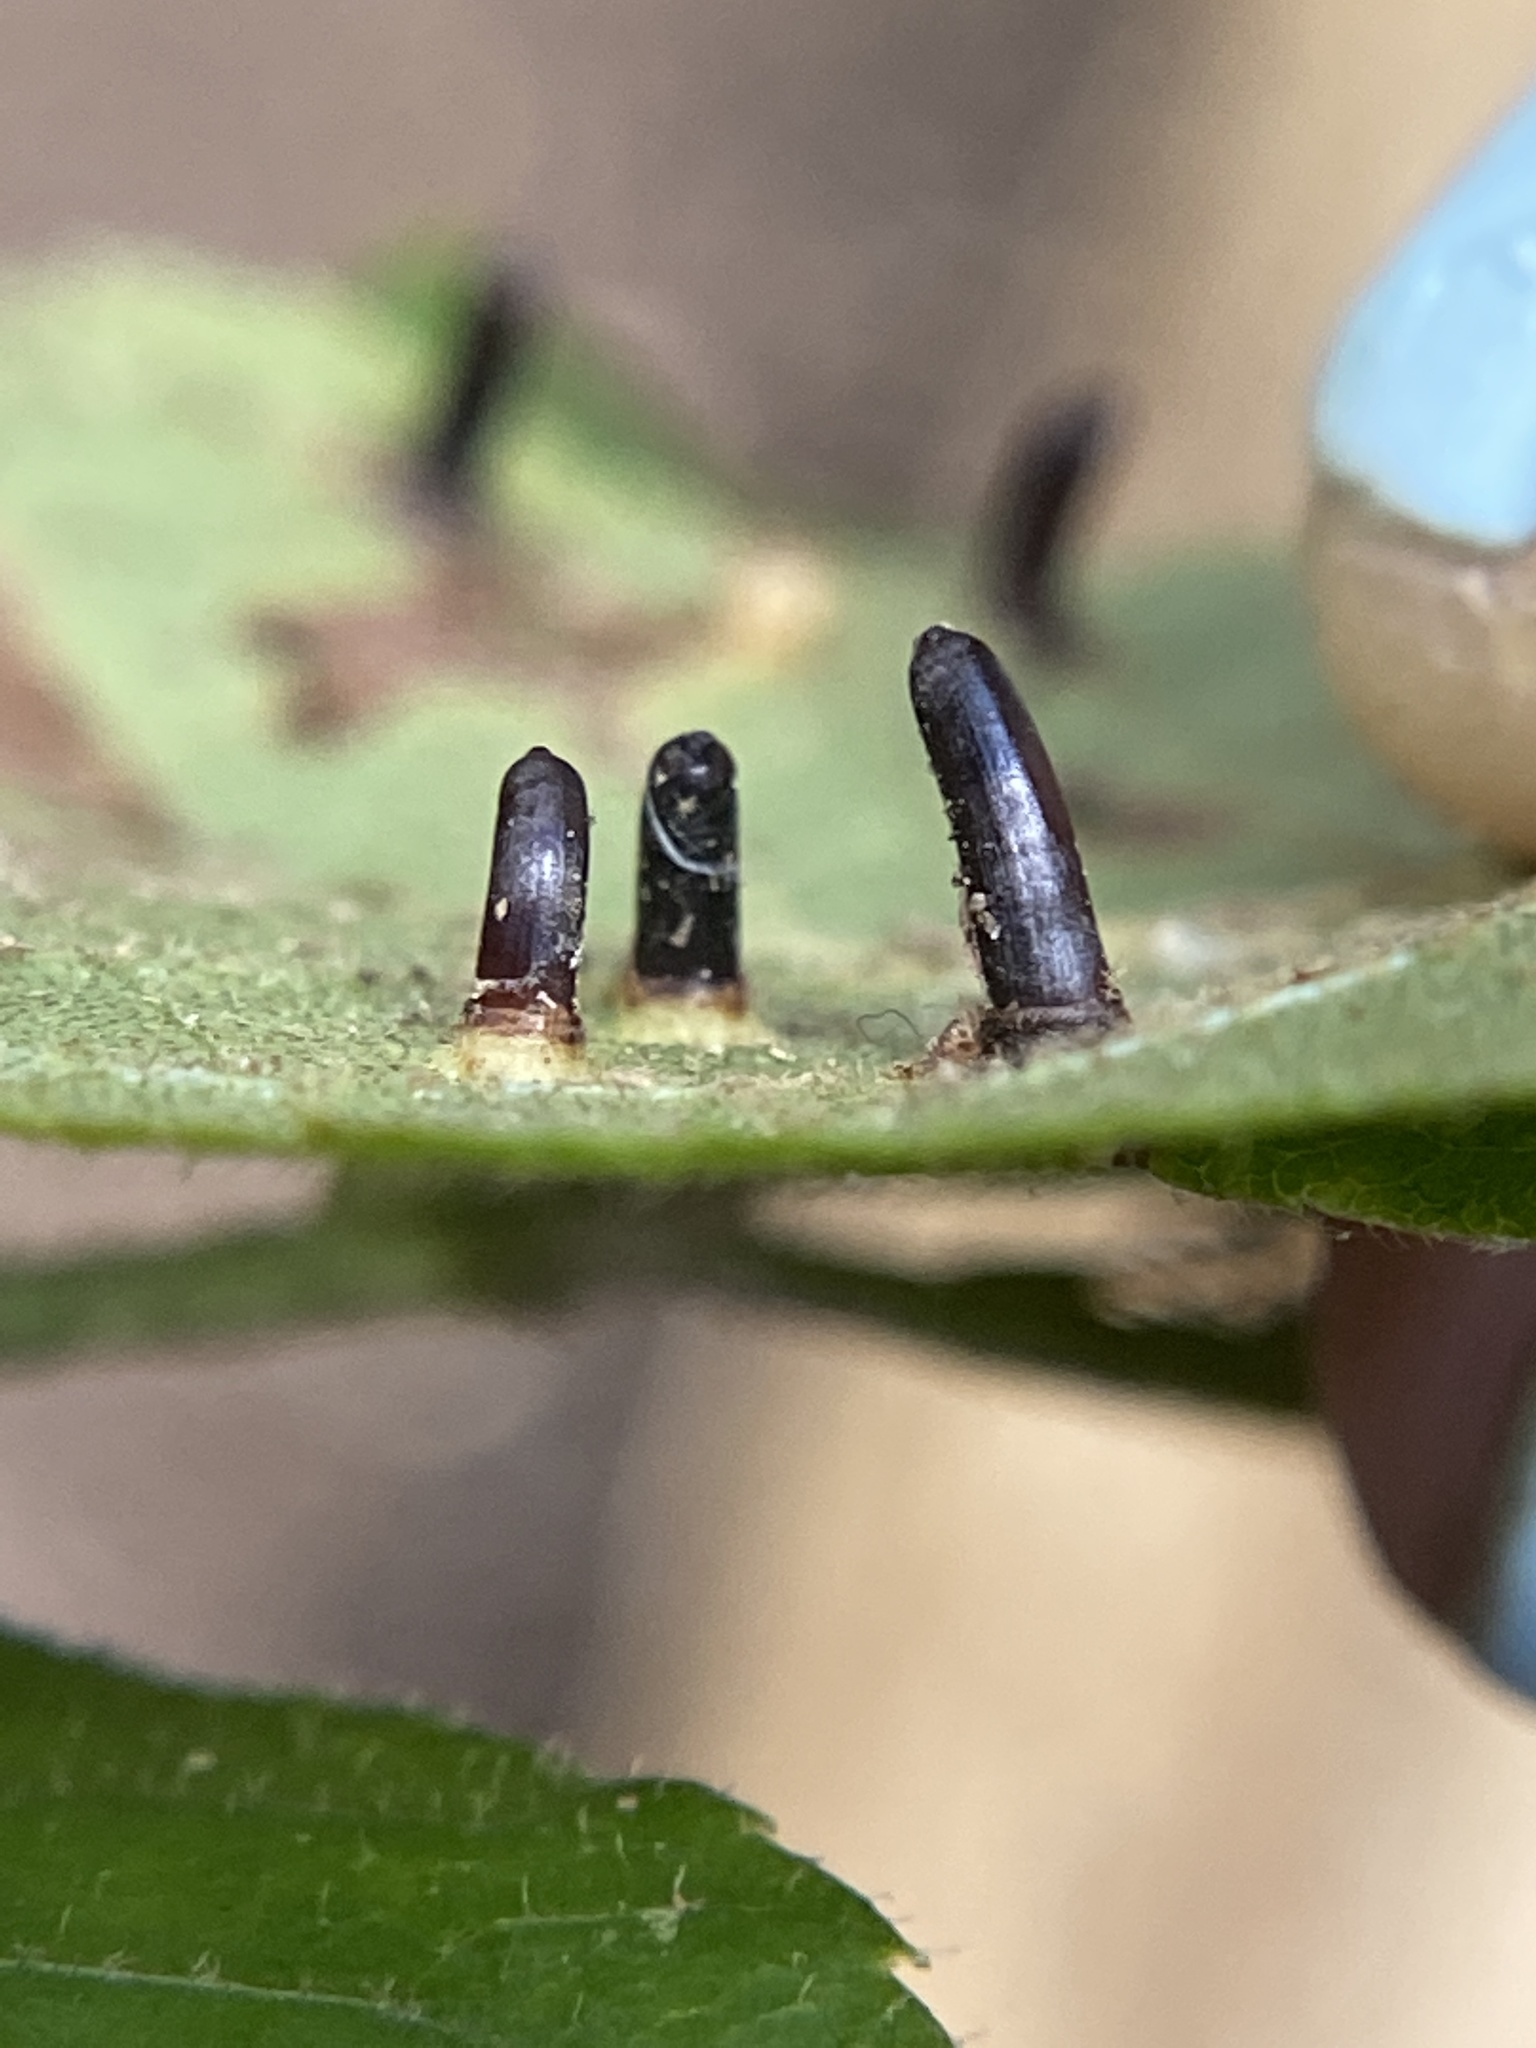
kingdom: Animalia
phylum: Arthropoda
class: Insecta
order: Diptera
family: Cecidomyiidae
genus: Caryomyia
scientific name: Caryomyia tubicola
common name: Hickory bullet gall midge
